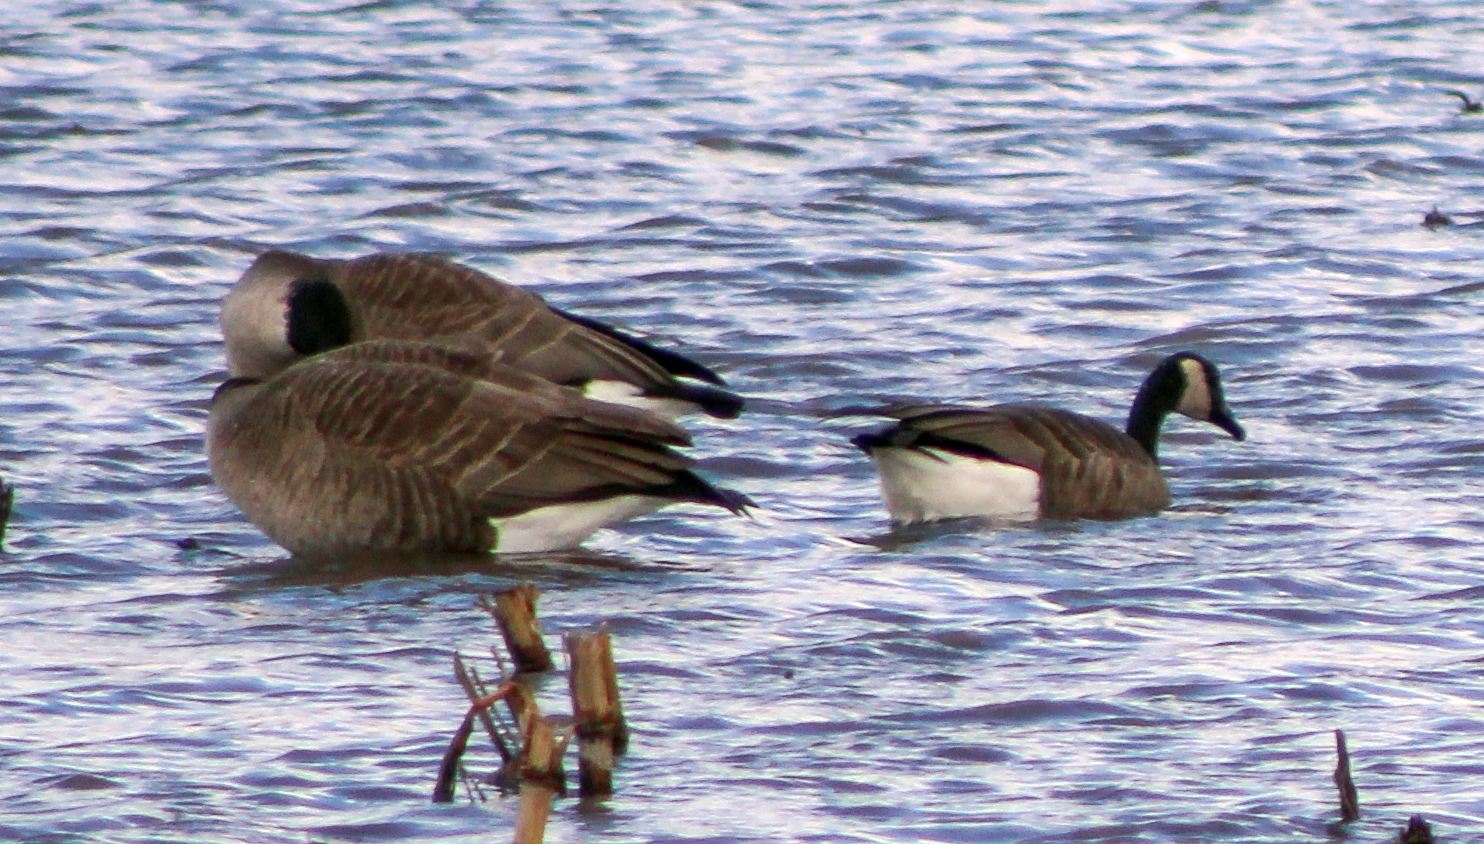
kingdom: Animalia
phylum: Chordata
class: Aves
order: Anseriformes
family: Anatidae
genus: Branta
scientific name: Branta canadensis
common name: Canada goose
